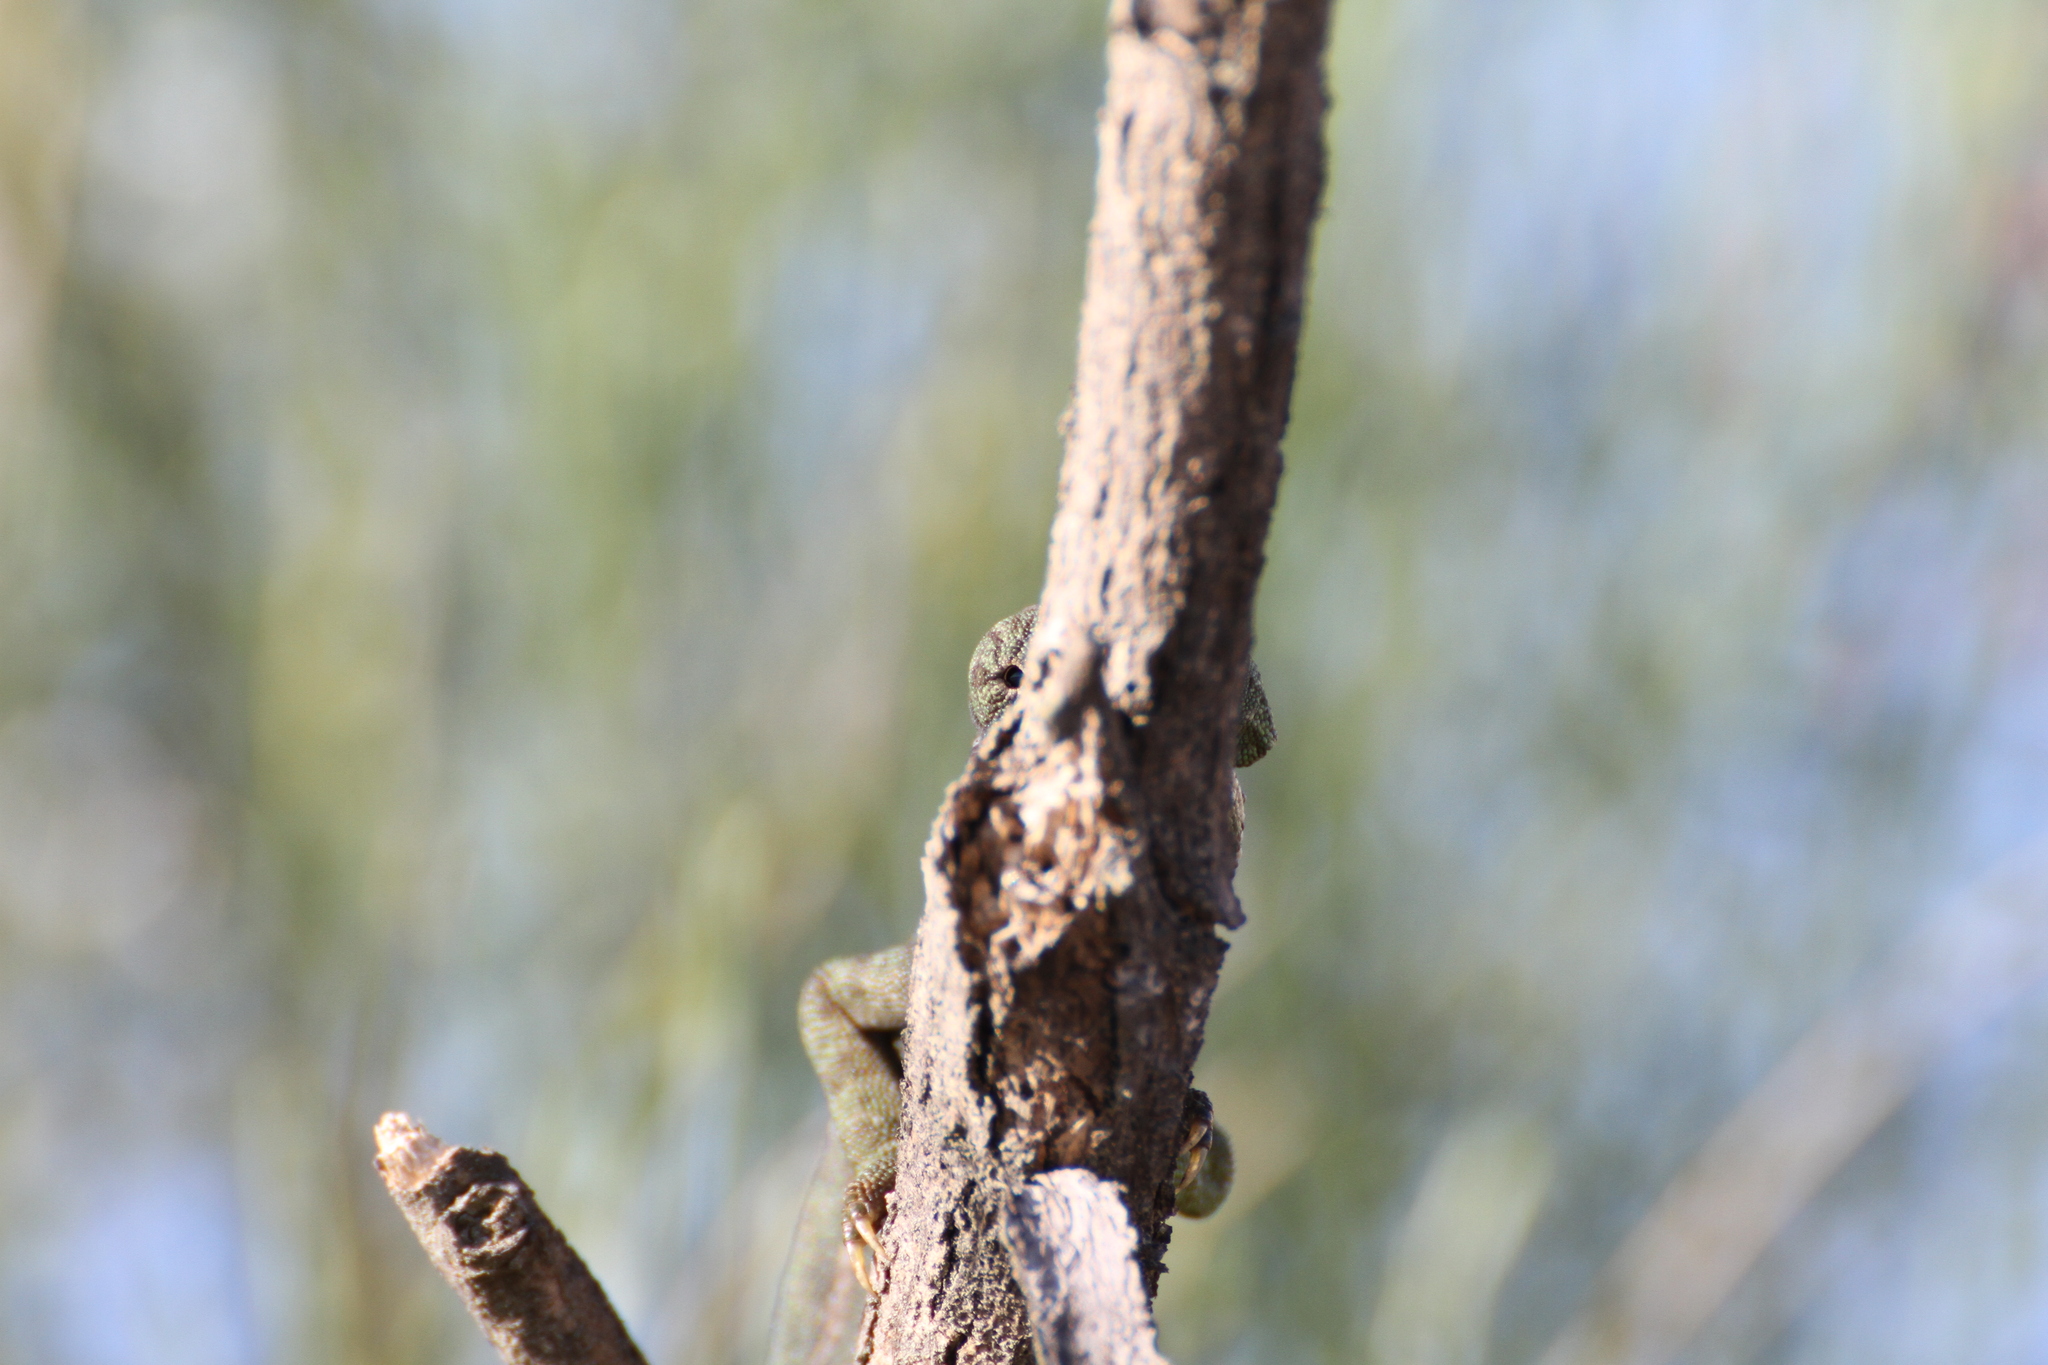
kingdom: Animalia
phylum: Chordata
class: Squamata
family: Chamaeleonidae
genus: Chamaeleo
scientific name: Chamaeleo chamaeleon
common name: Mediterranean chameleon
